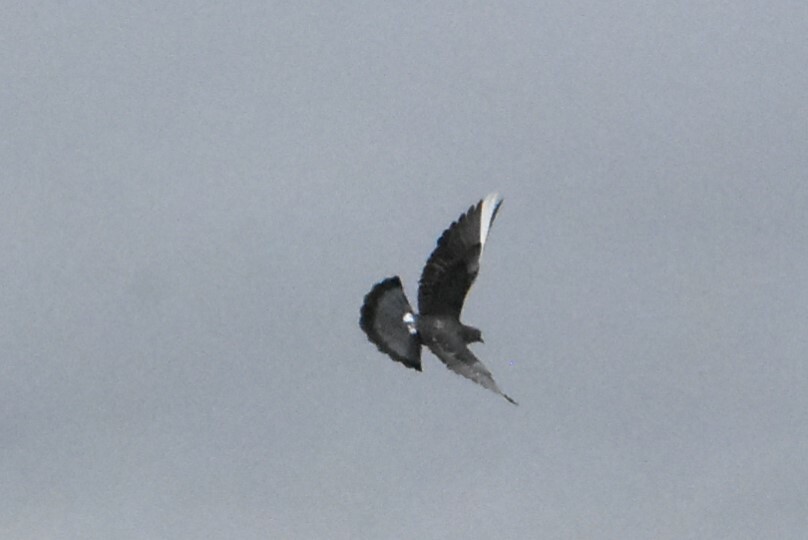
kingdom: Animalia
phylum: Chordata
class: Aves
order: Columbiformes
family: Columbidae
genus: Columba
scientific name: Columba livia
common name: Rock pigeon
